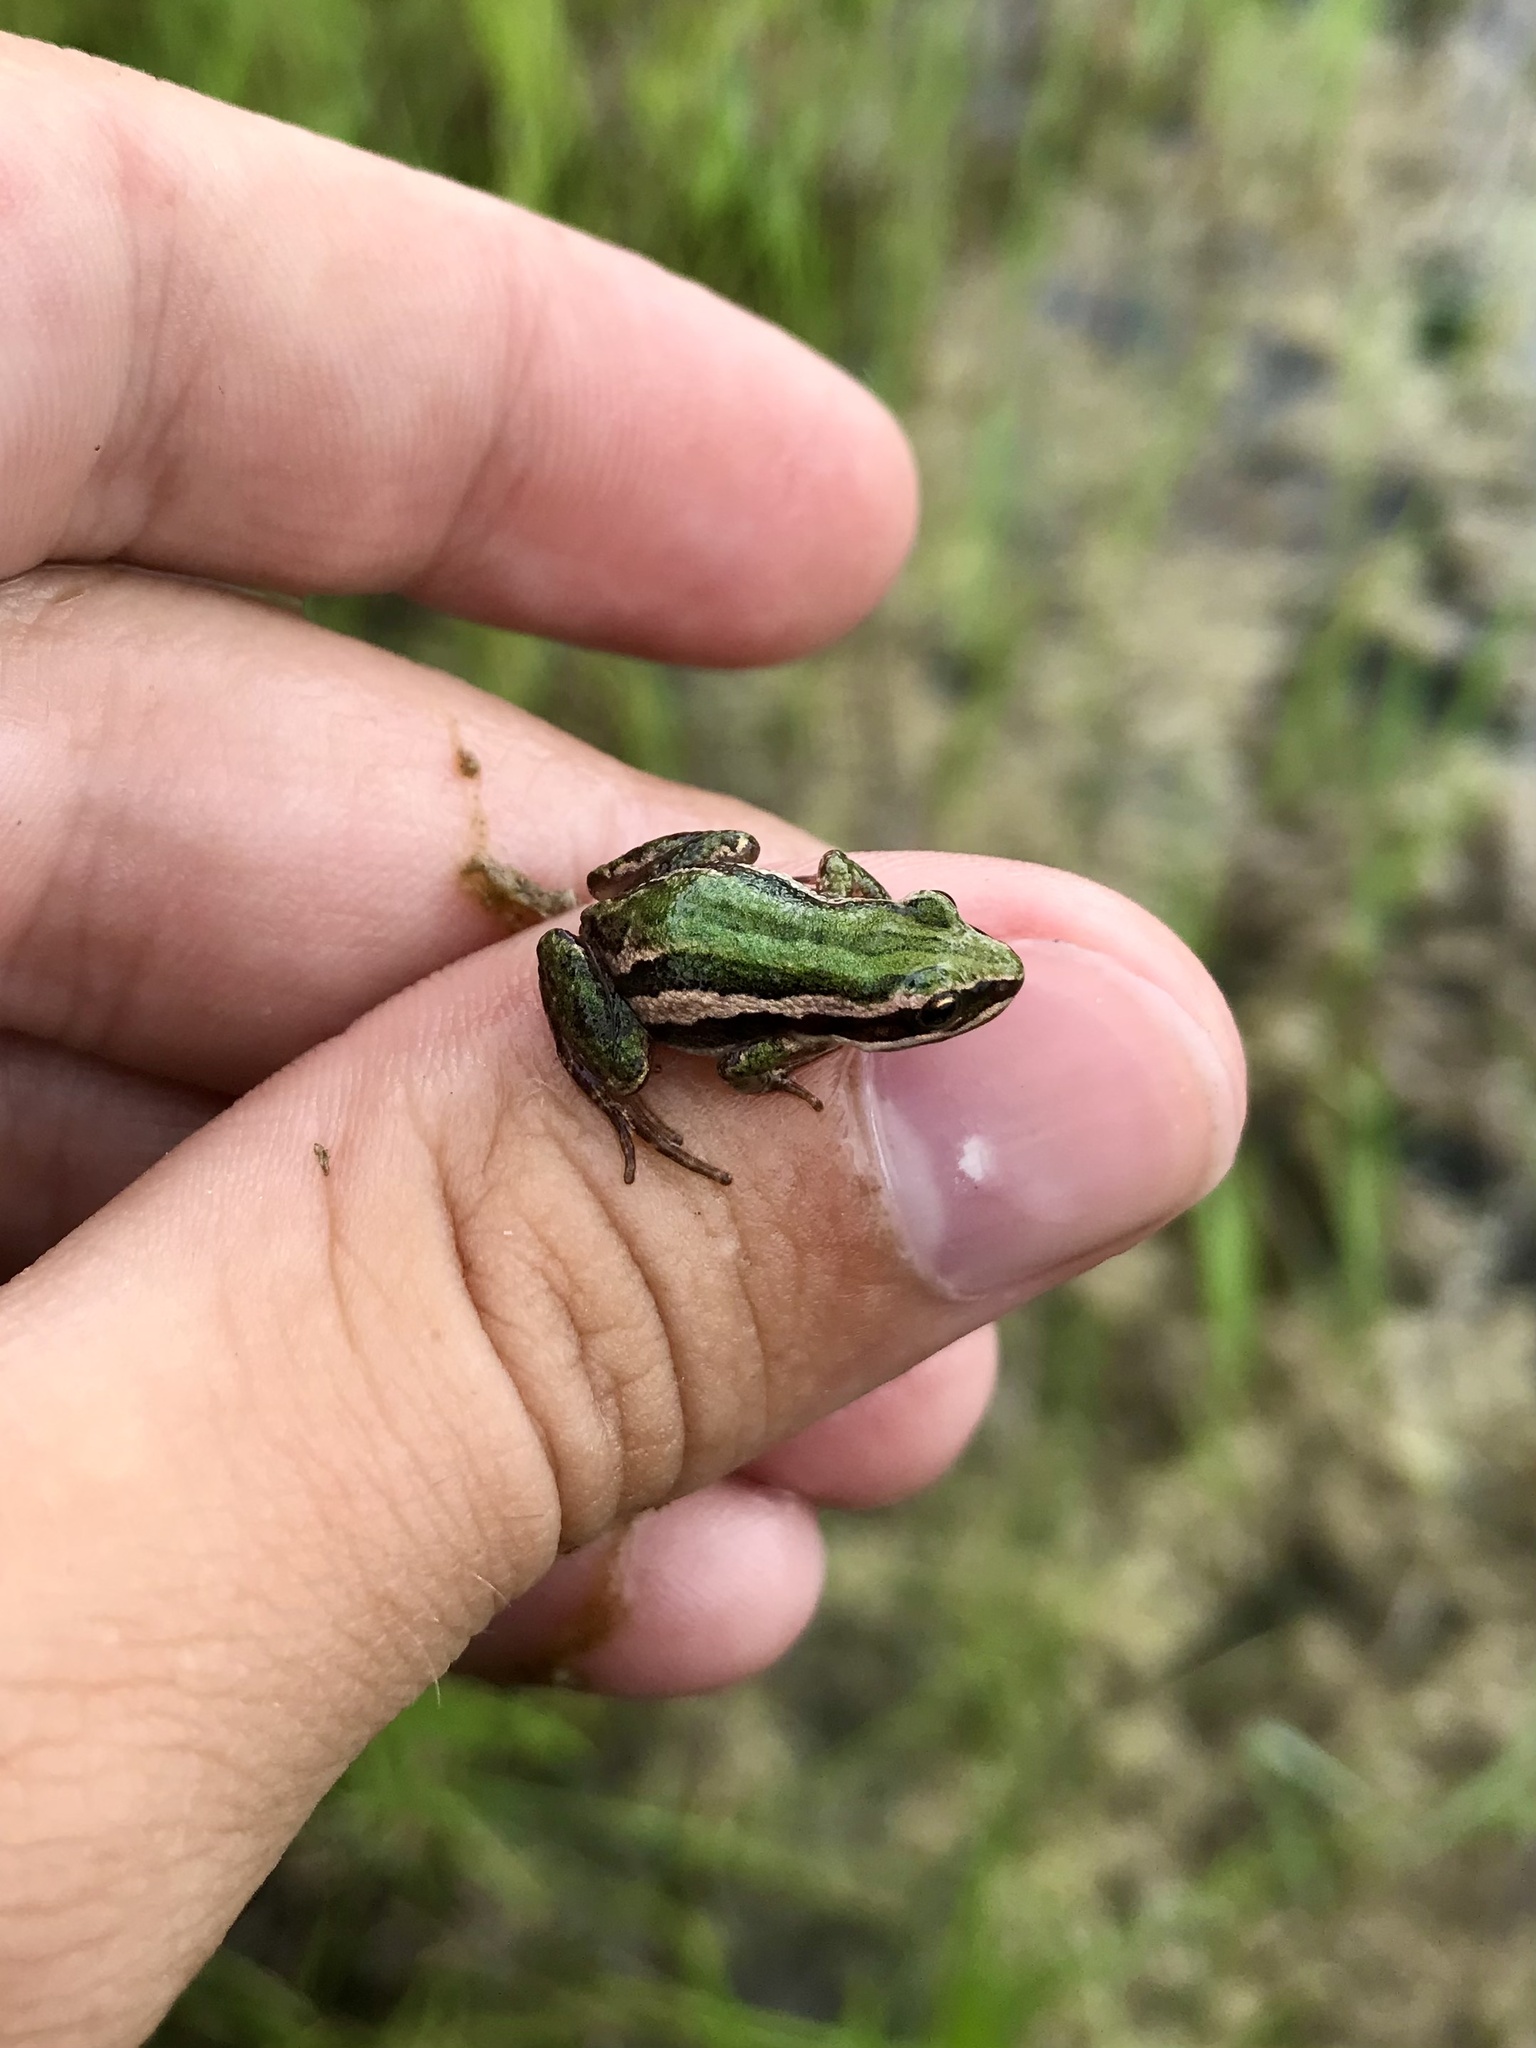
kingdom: Animalia
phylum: Chordata
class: Amphibia
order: Anura
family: Hylidae
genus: Pseudacris
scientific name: Pseudacris maculata
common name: Boreal chorus frog
